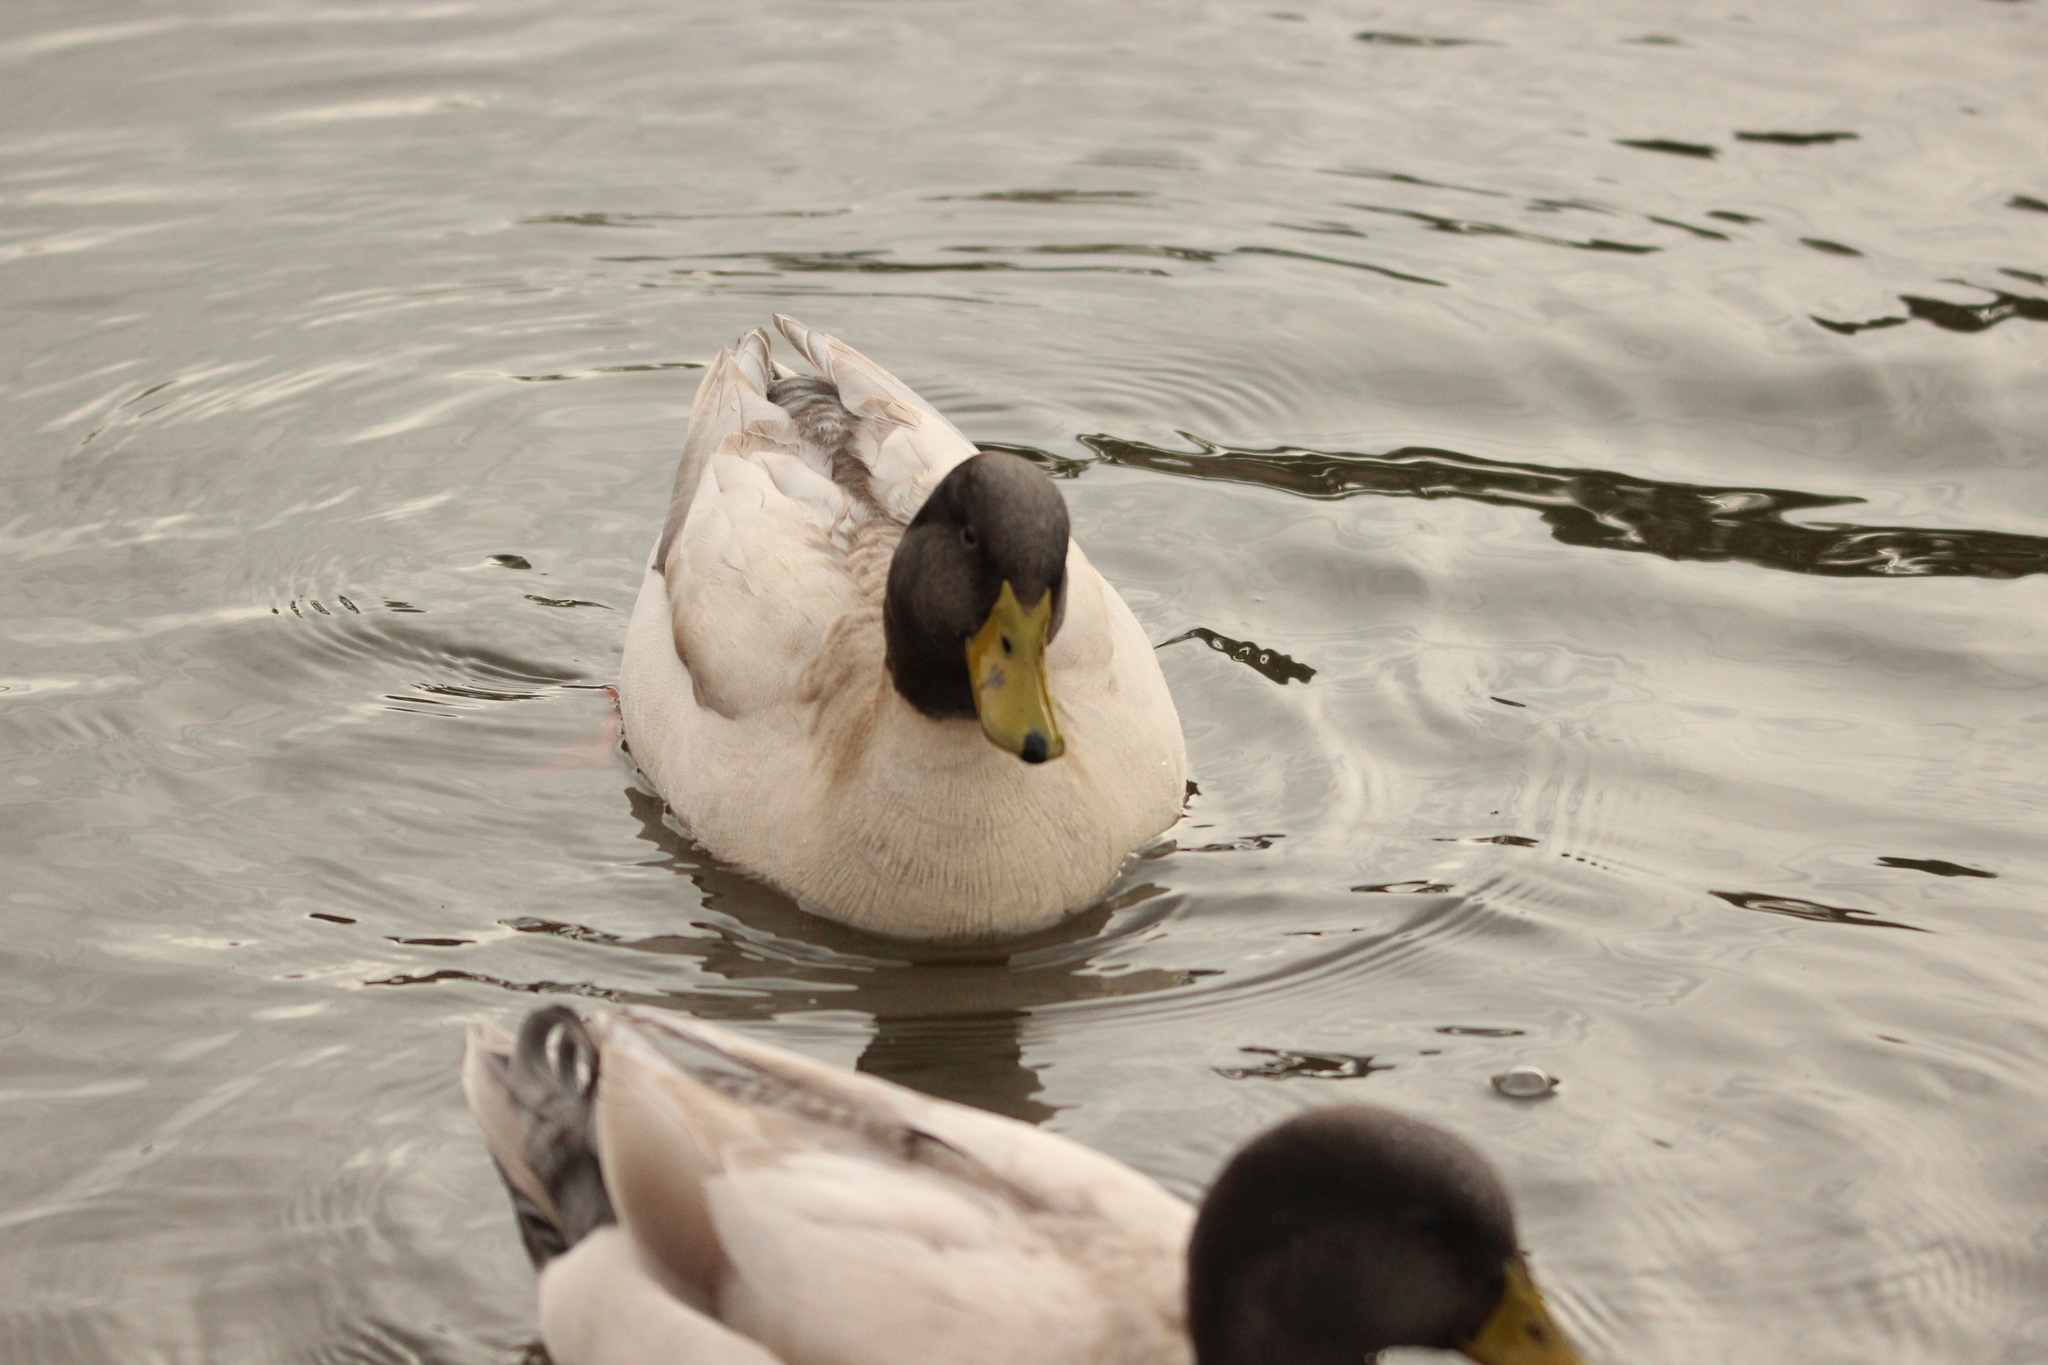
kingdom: Animalia
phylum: Chordata
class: Aves
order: Anseriformes
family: Anatidae
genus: Anas
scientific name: Anas platyrhynchos
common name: Mallard
